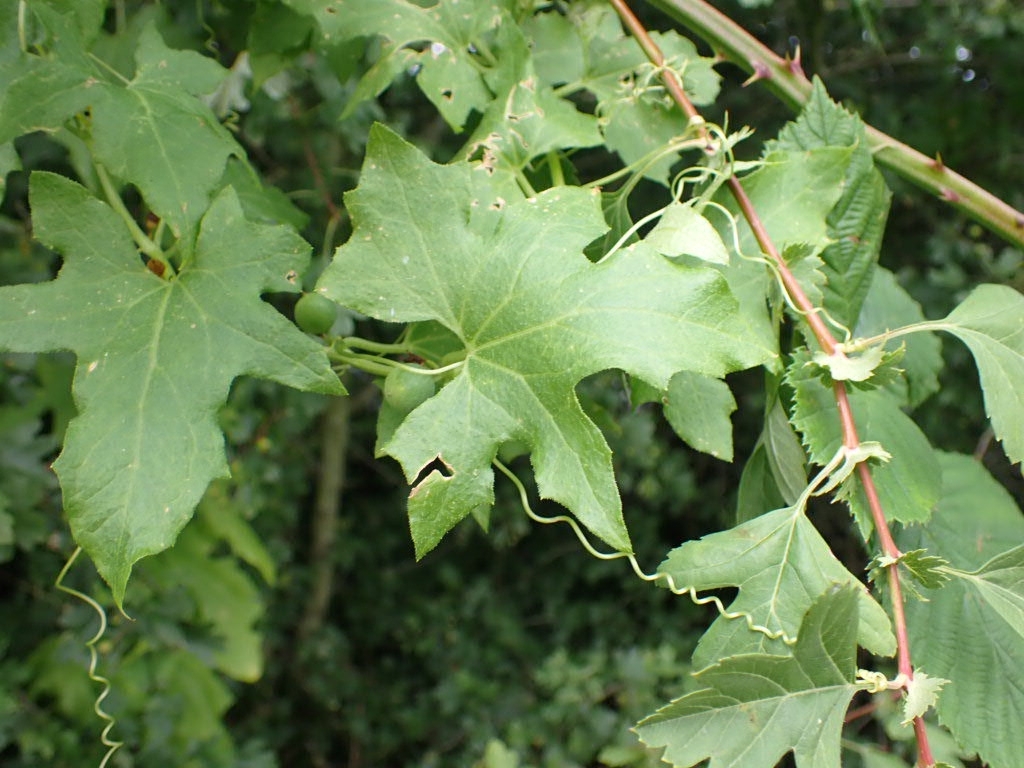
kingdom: Plantae
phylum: Tracheophyta
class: Magnoliopsida
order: Cucurbitales
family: Cucurbitaceae
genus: Bryonia
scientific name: Bryonia cretica
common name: Cretan bryony
